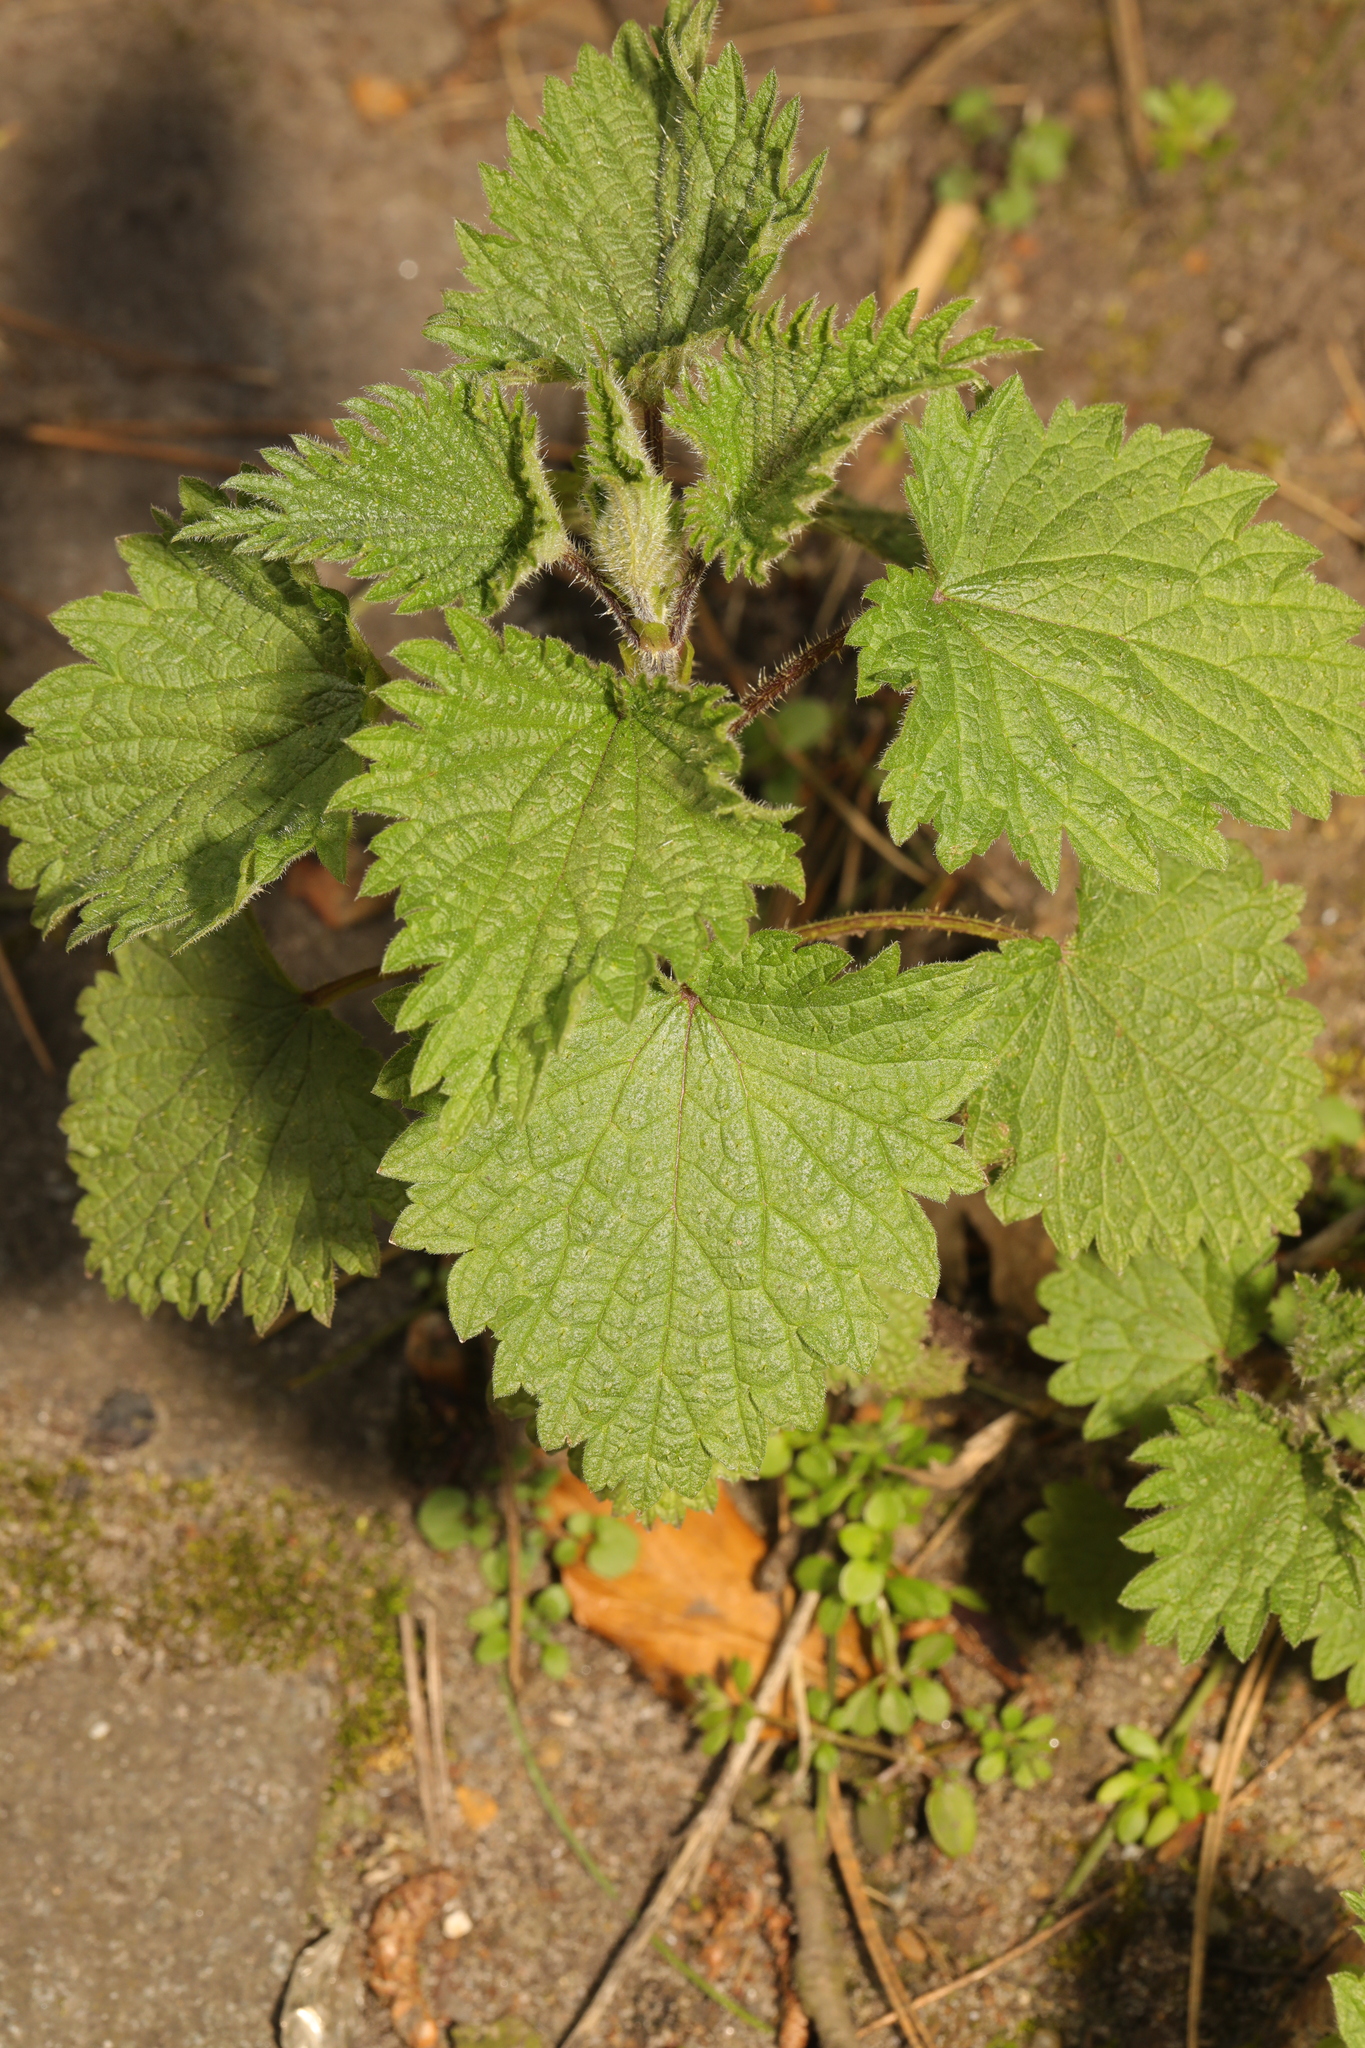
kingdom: Plantae
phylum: Tracheophyta
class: Magnoliopsida
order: Rosales
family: Urticaceae
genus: Urtica
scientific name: Urtica dioica
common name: Common nettle
